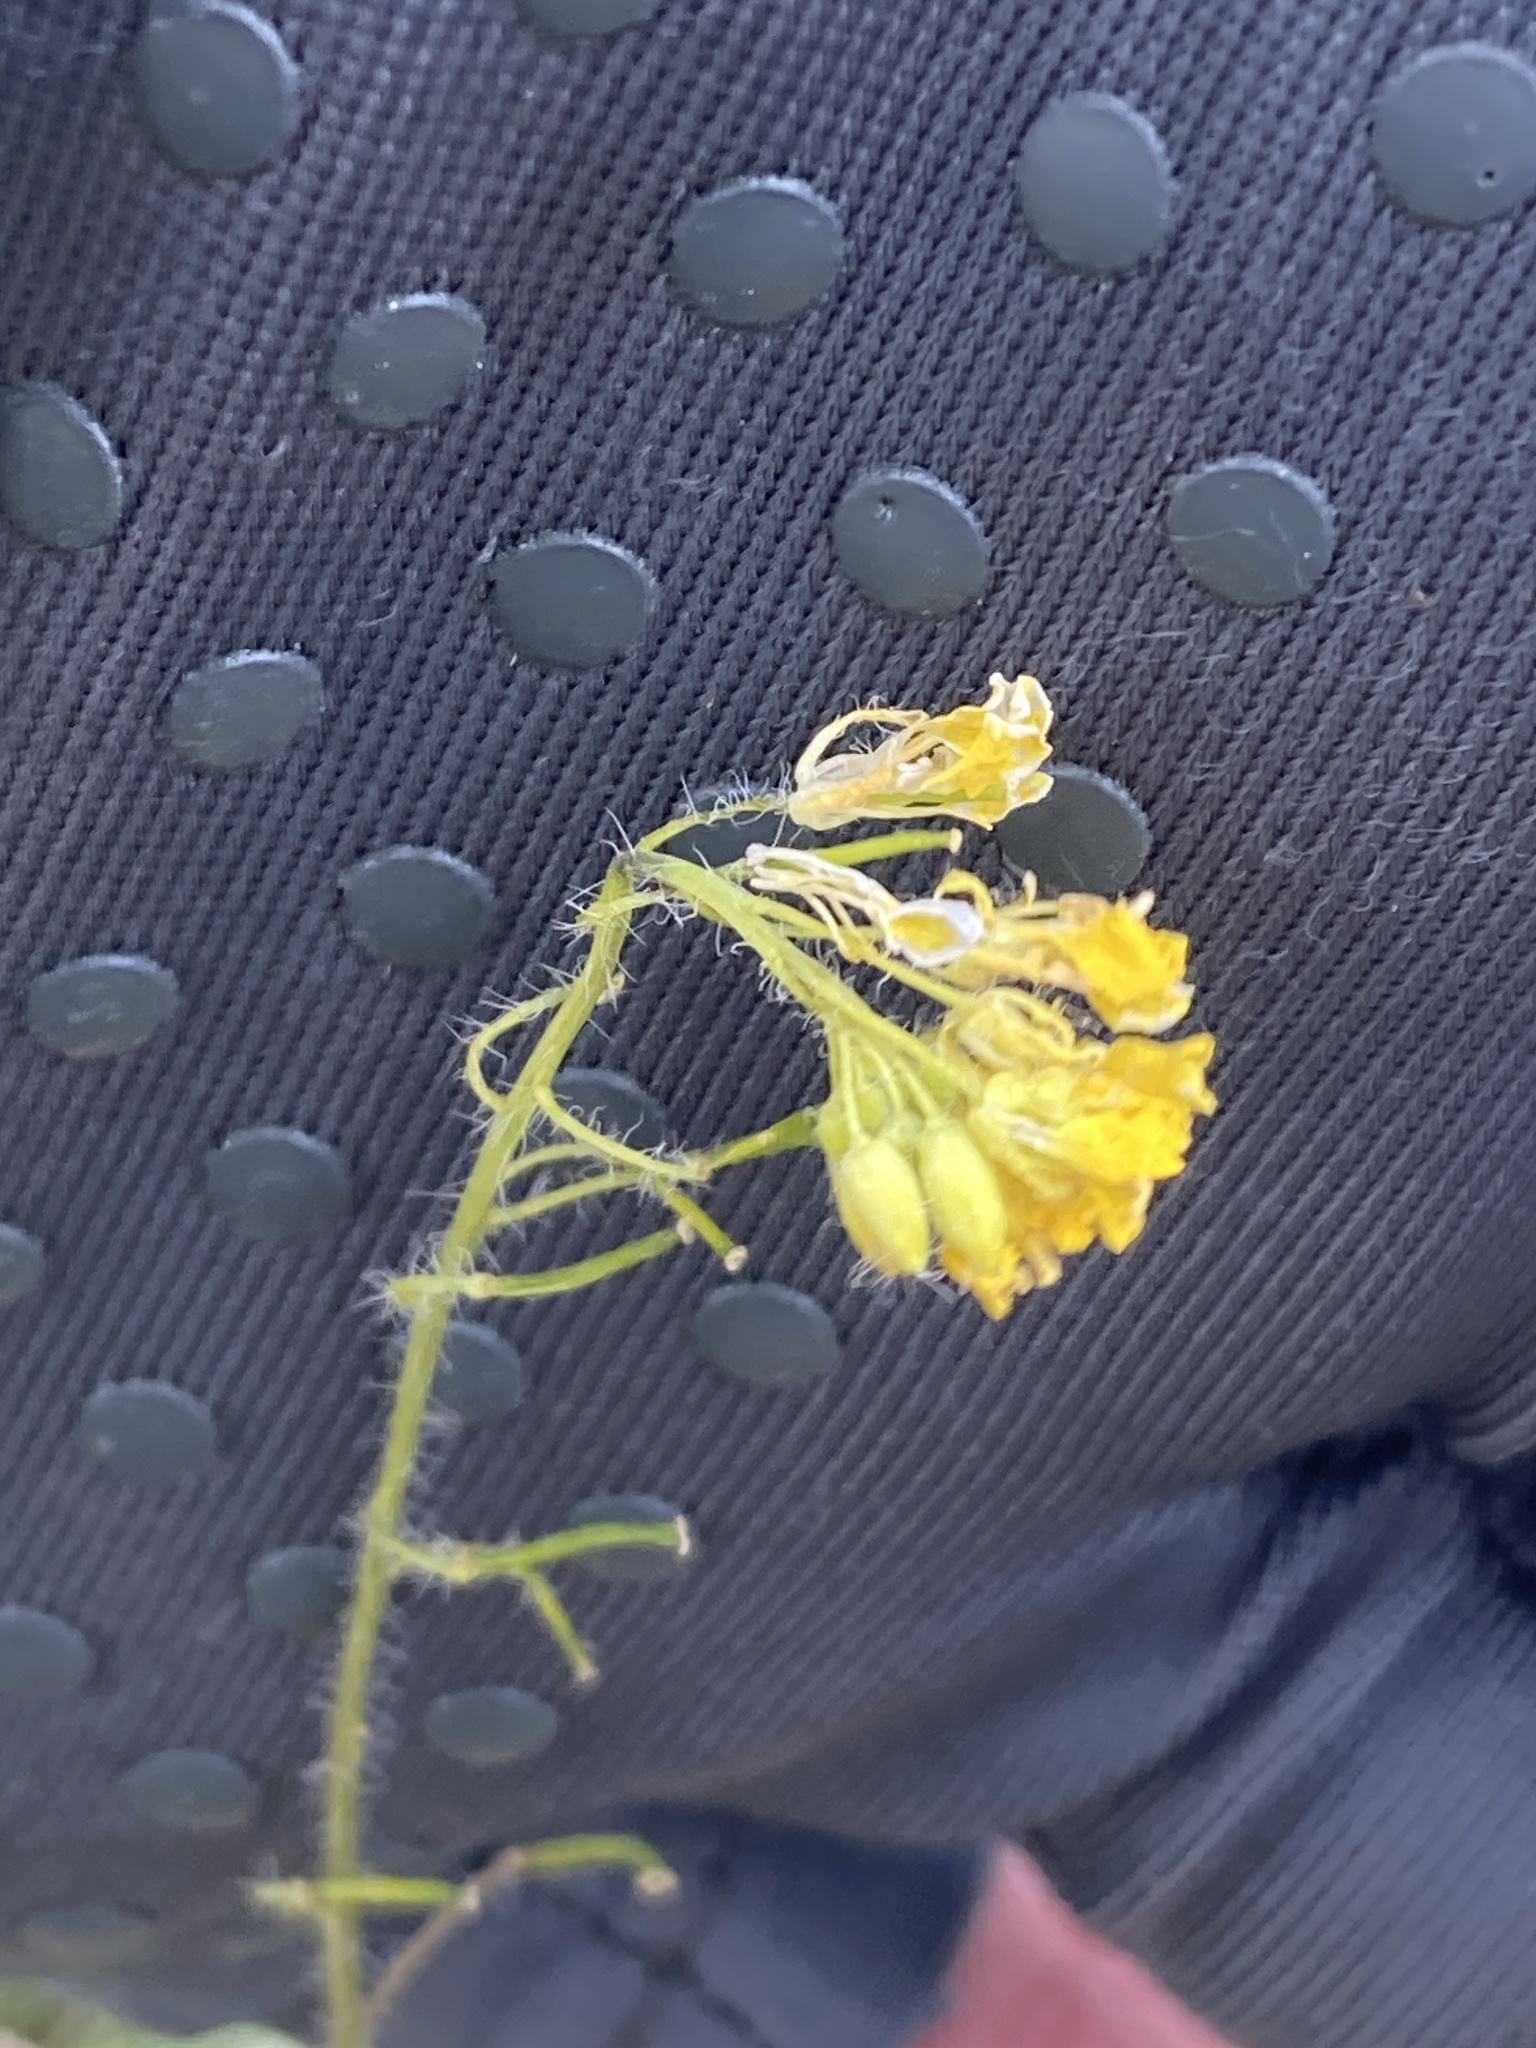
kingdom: Plantae
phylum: Tracheophyta
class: Magnoliopsida
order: Brassicales
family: Brassicaceae
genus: Sisymbrium
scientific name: Sisymbrium loeselii
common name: False london-rocket
